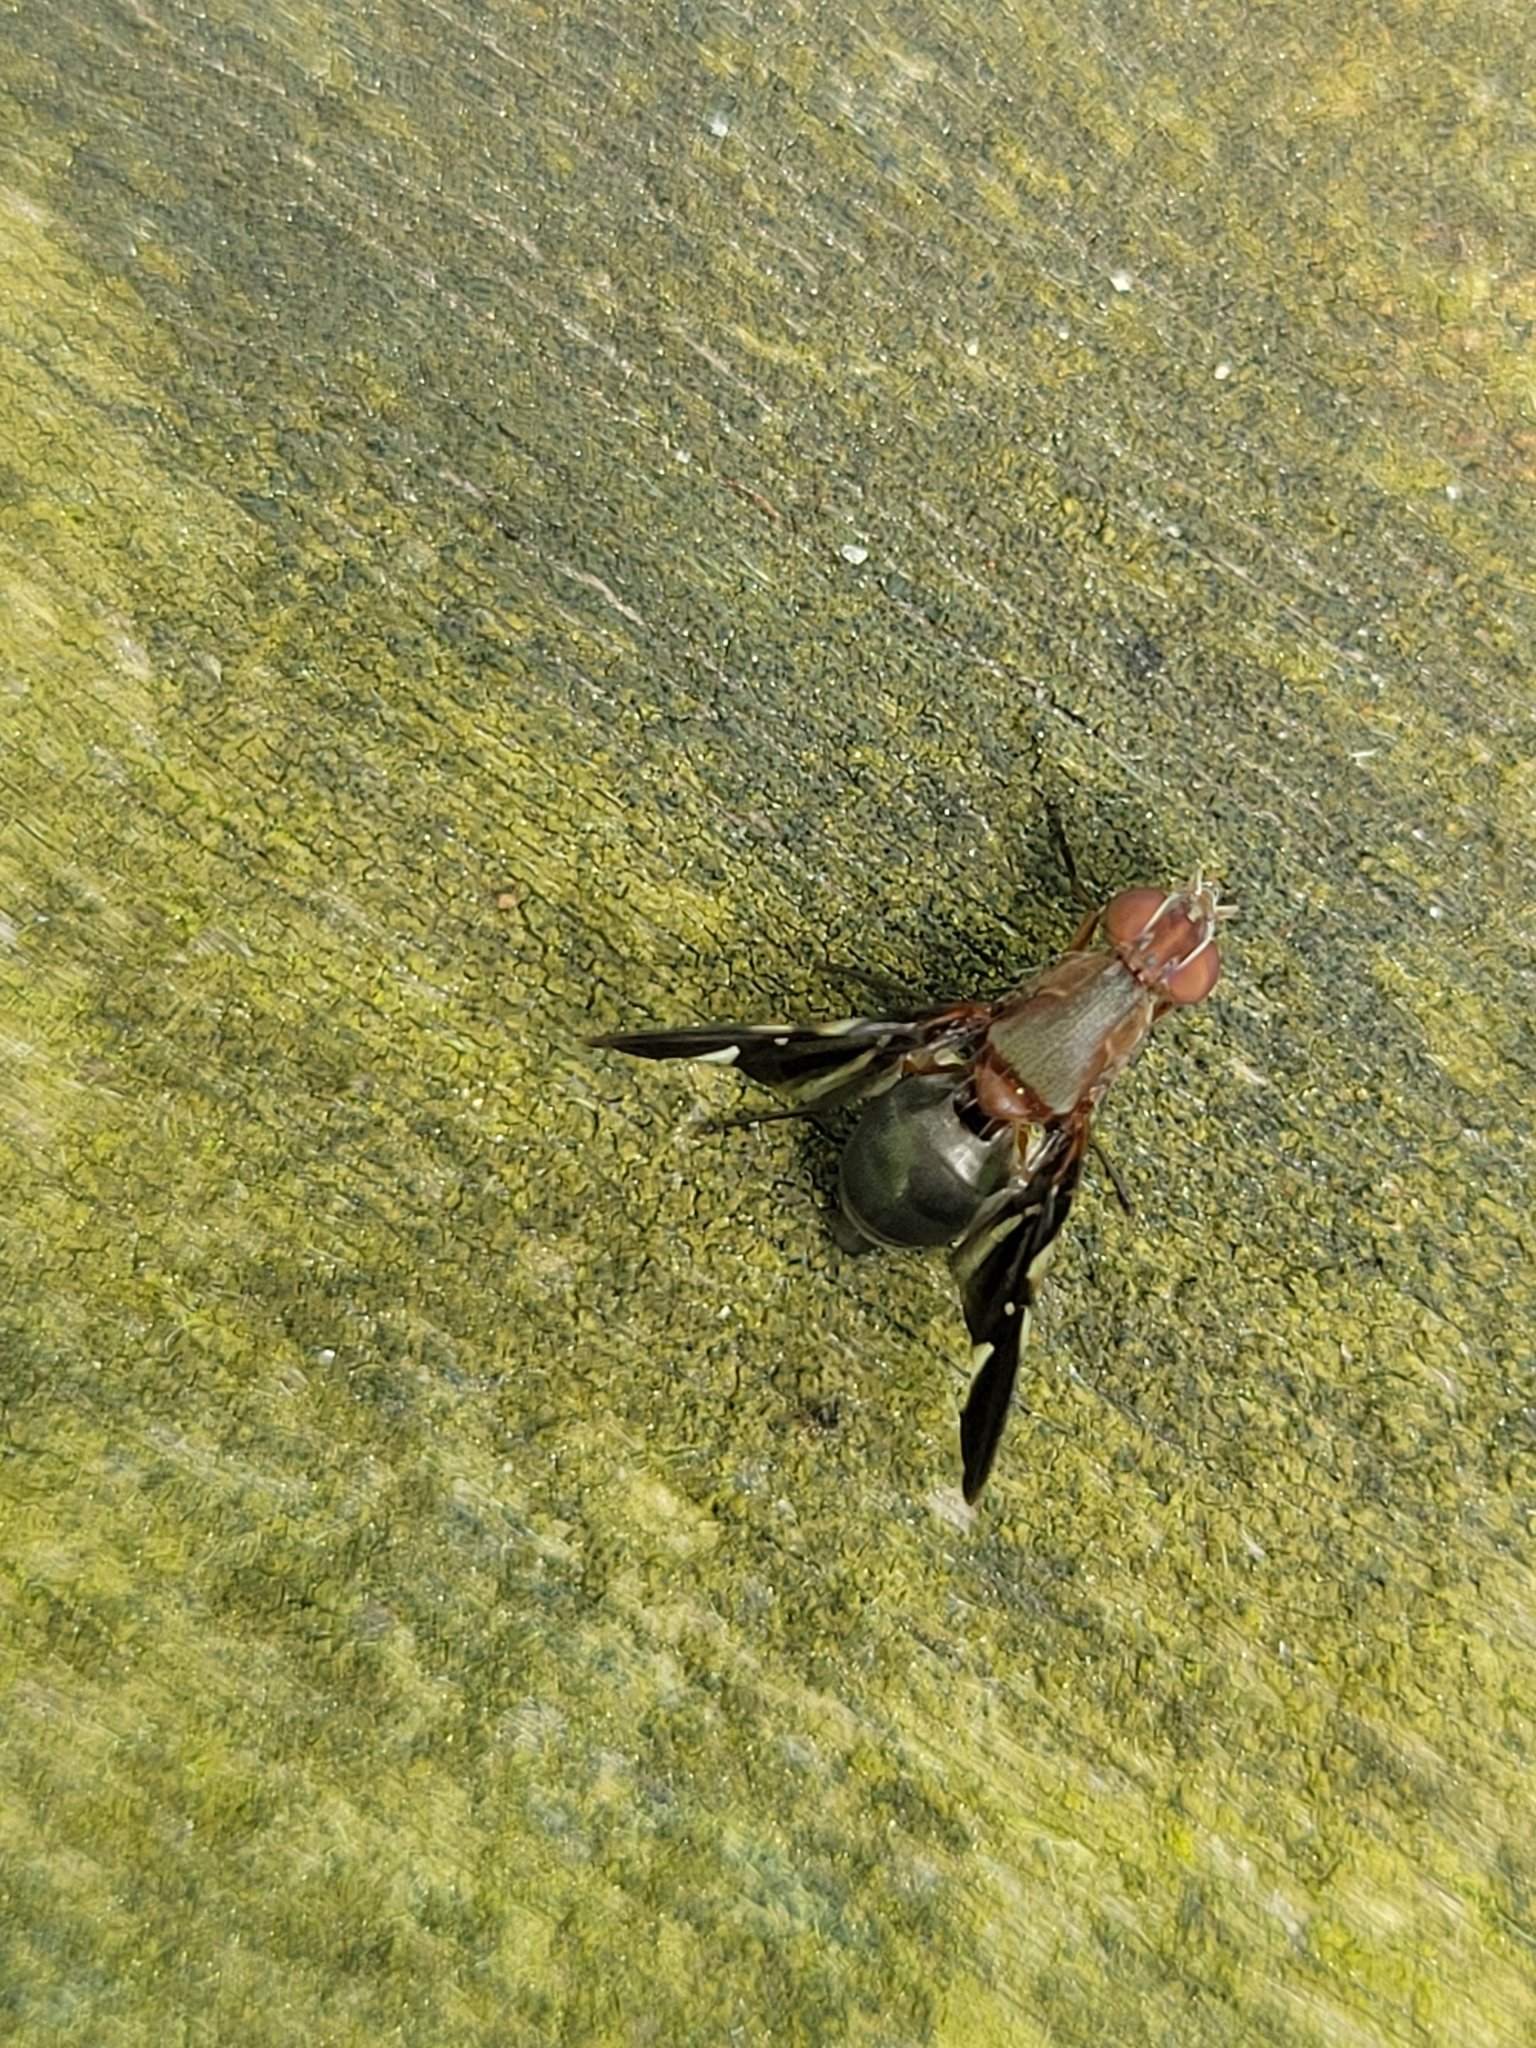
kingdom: Animalia
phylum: Arthropoda
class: Insecta
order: Diptera
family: Ulidiidae
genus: Delphinia
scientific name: Delphinia picta
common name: Common picture-winged fly
